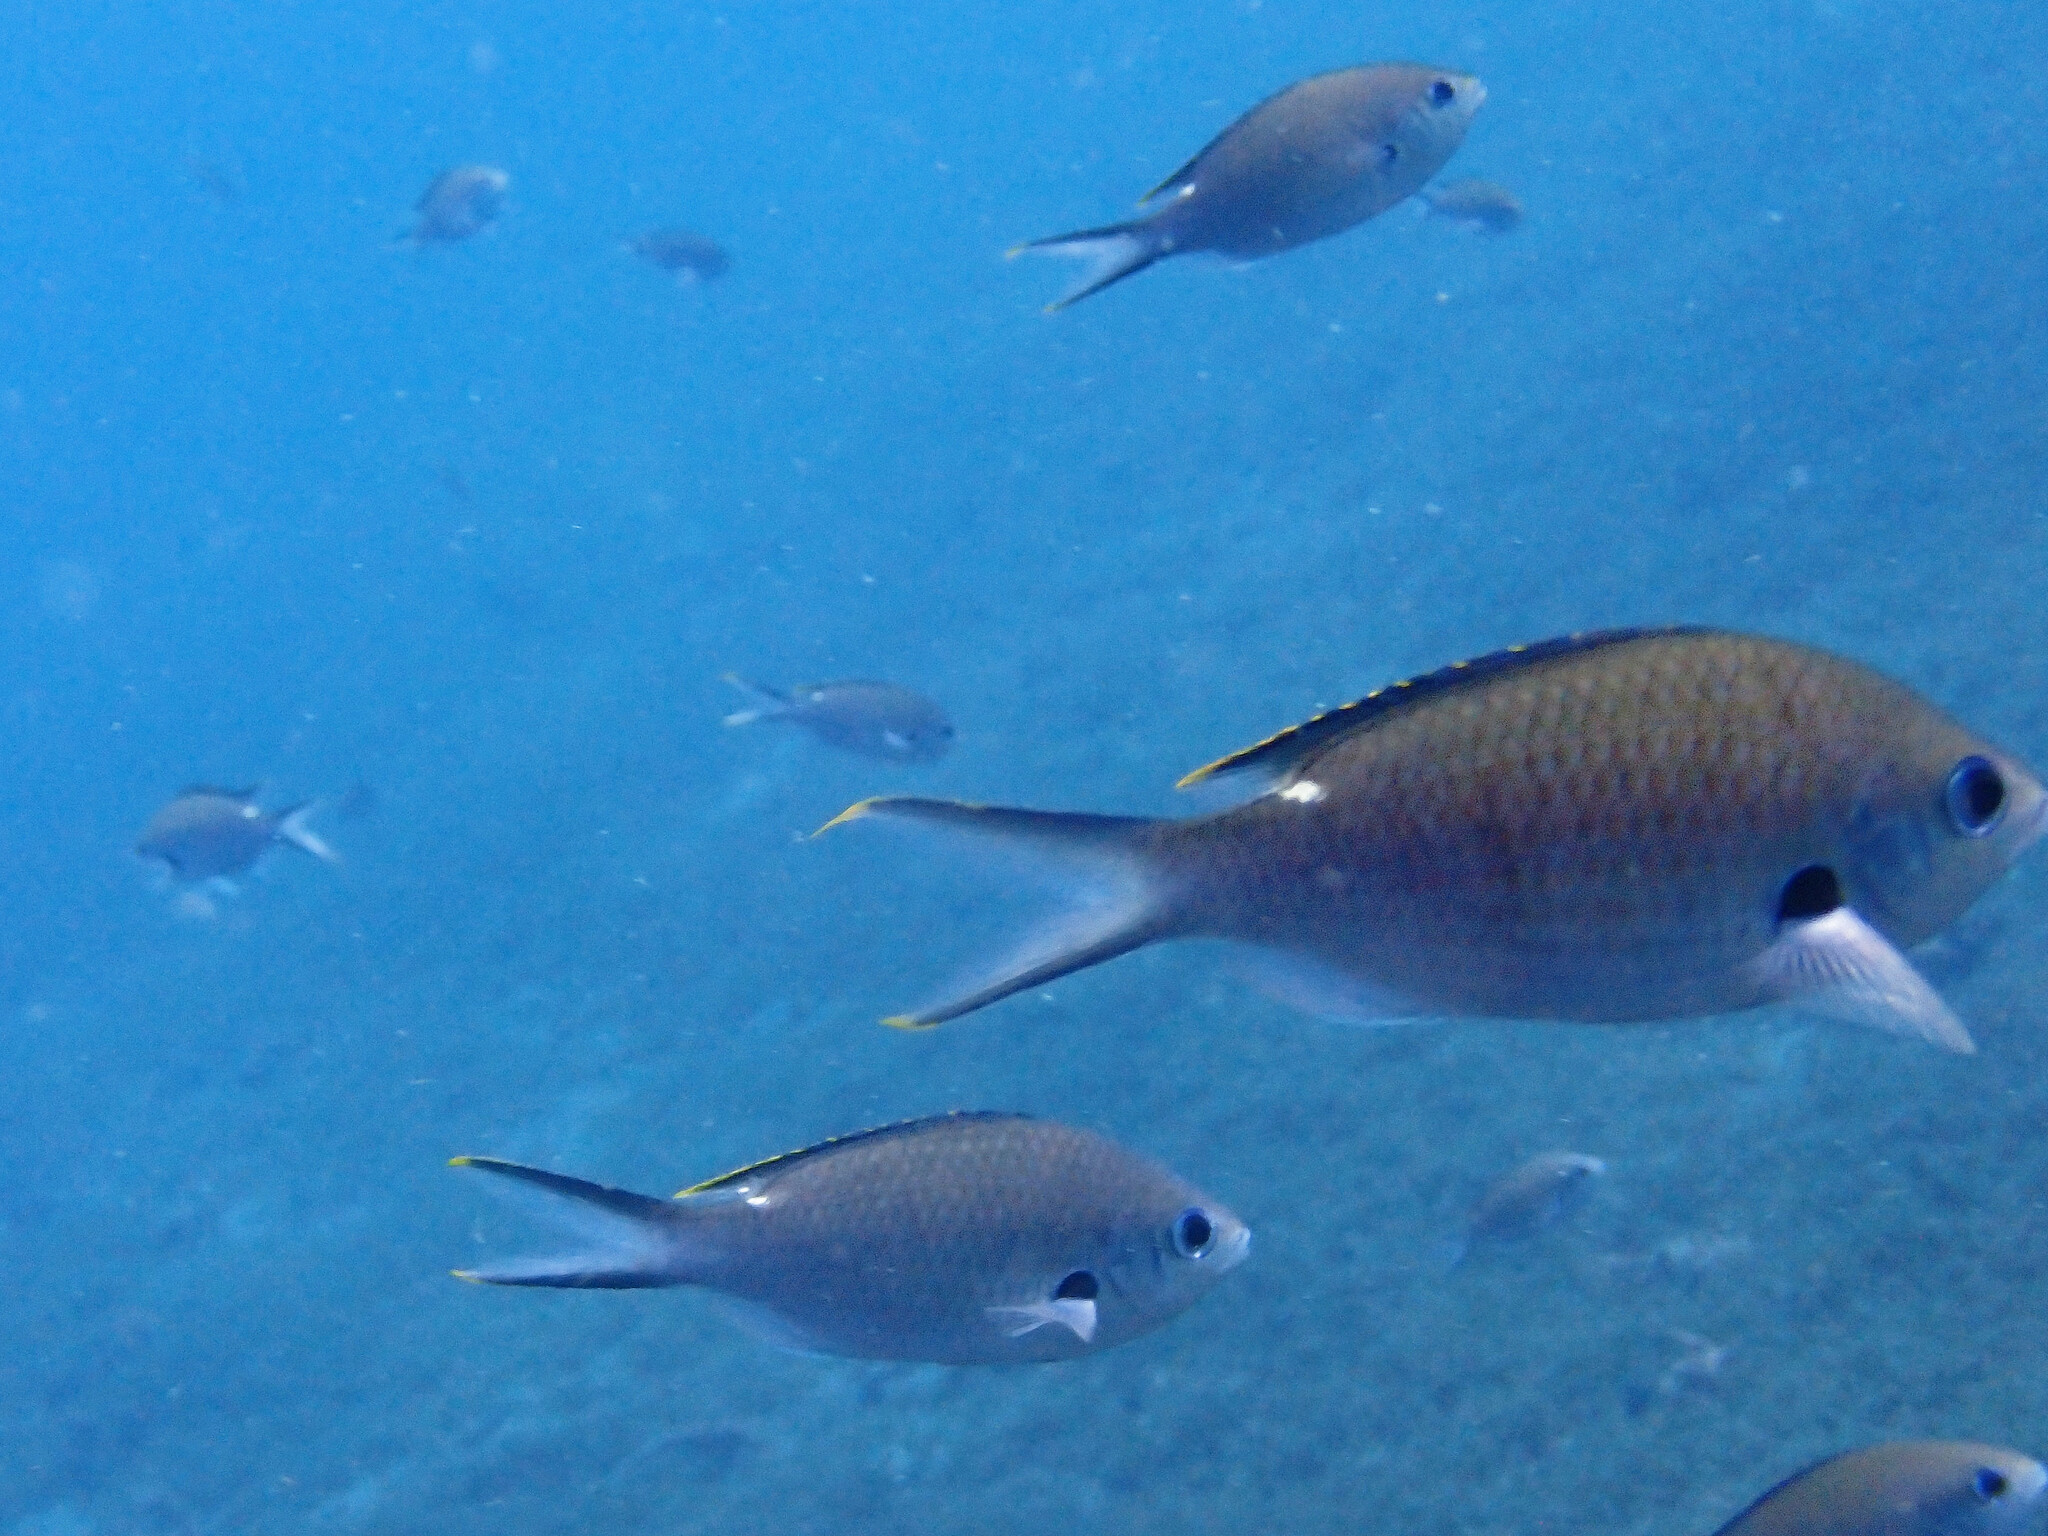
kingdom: Animalia
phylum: Chordata
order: Perciformes
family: Pomacentridae
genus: Chromis
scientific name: Chromis multilineata
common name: Brown chromis
